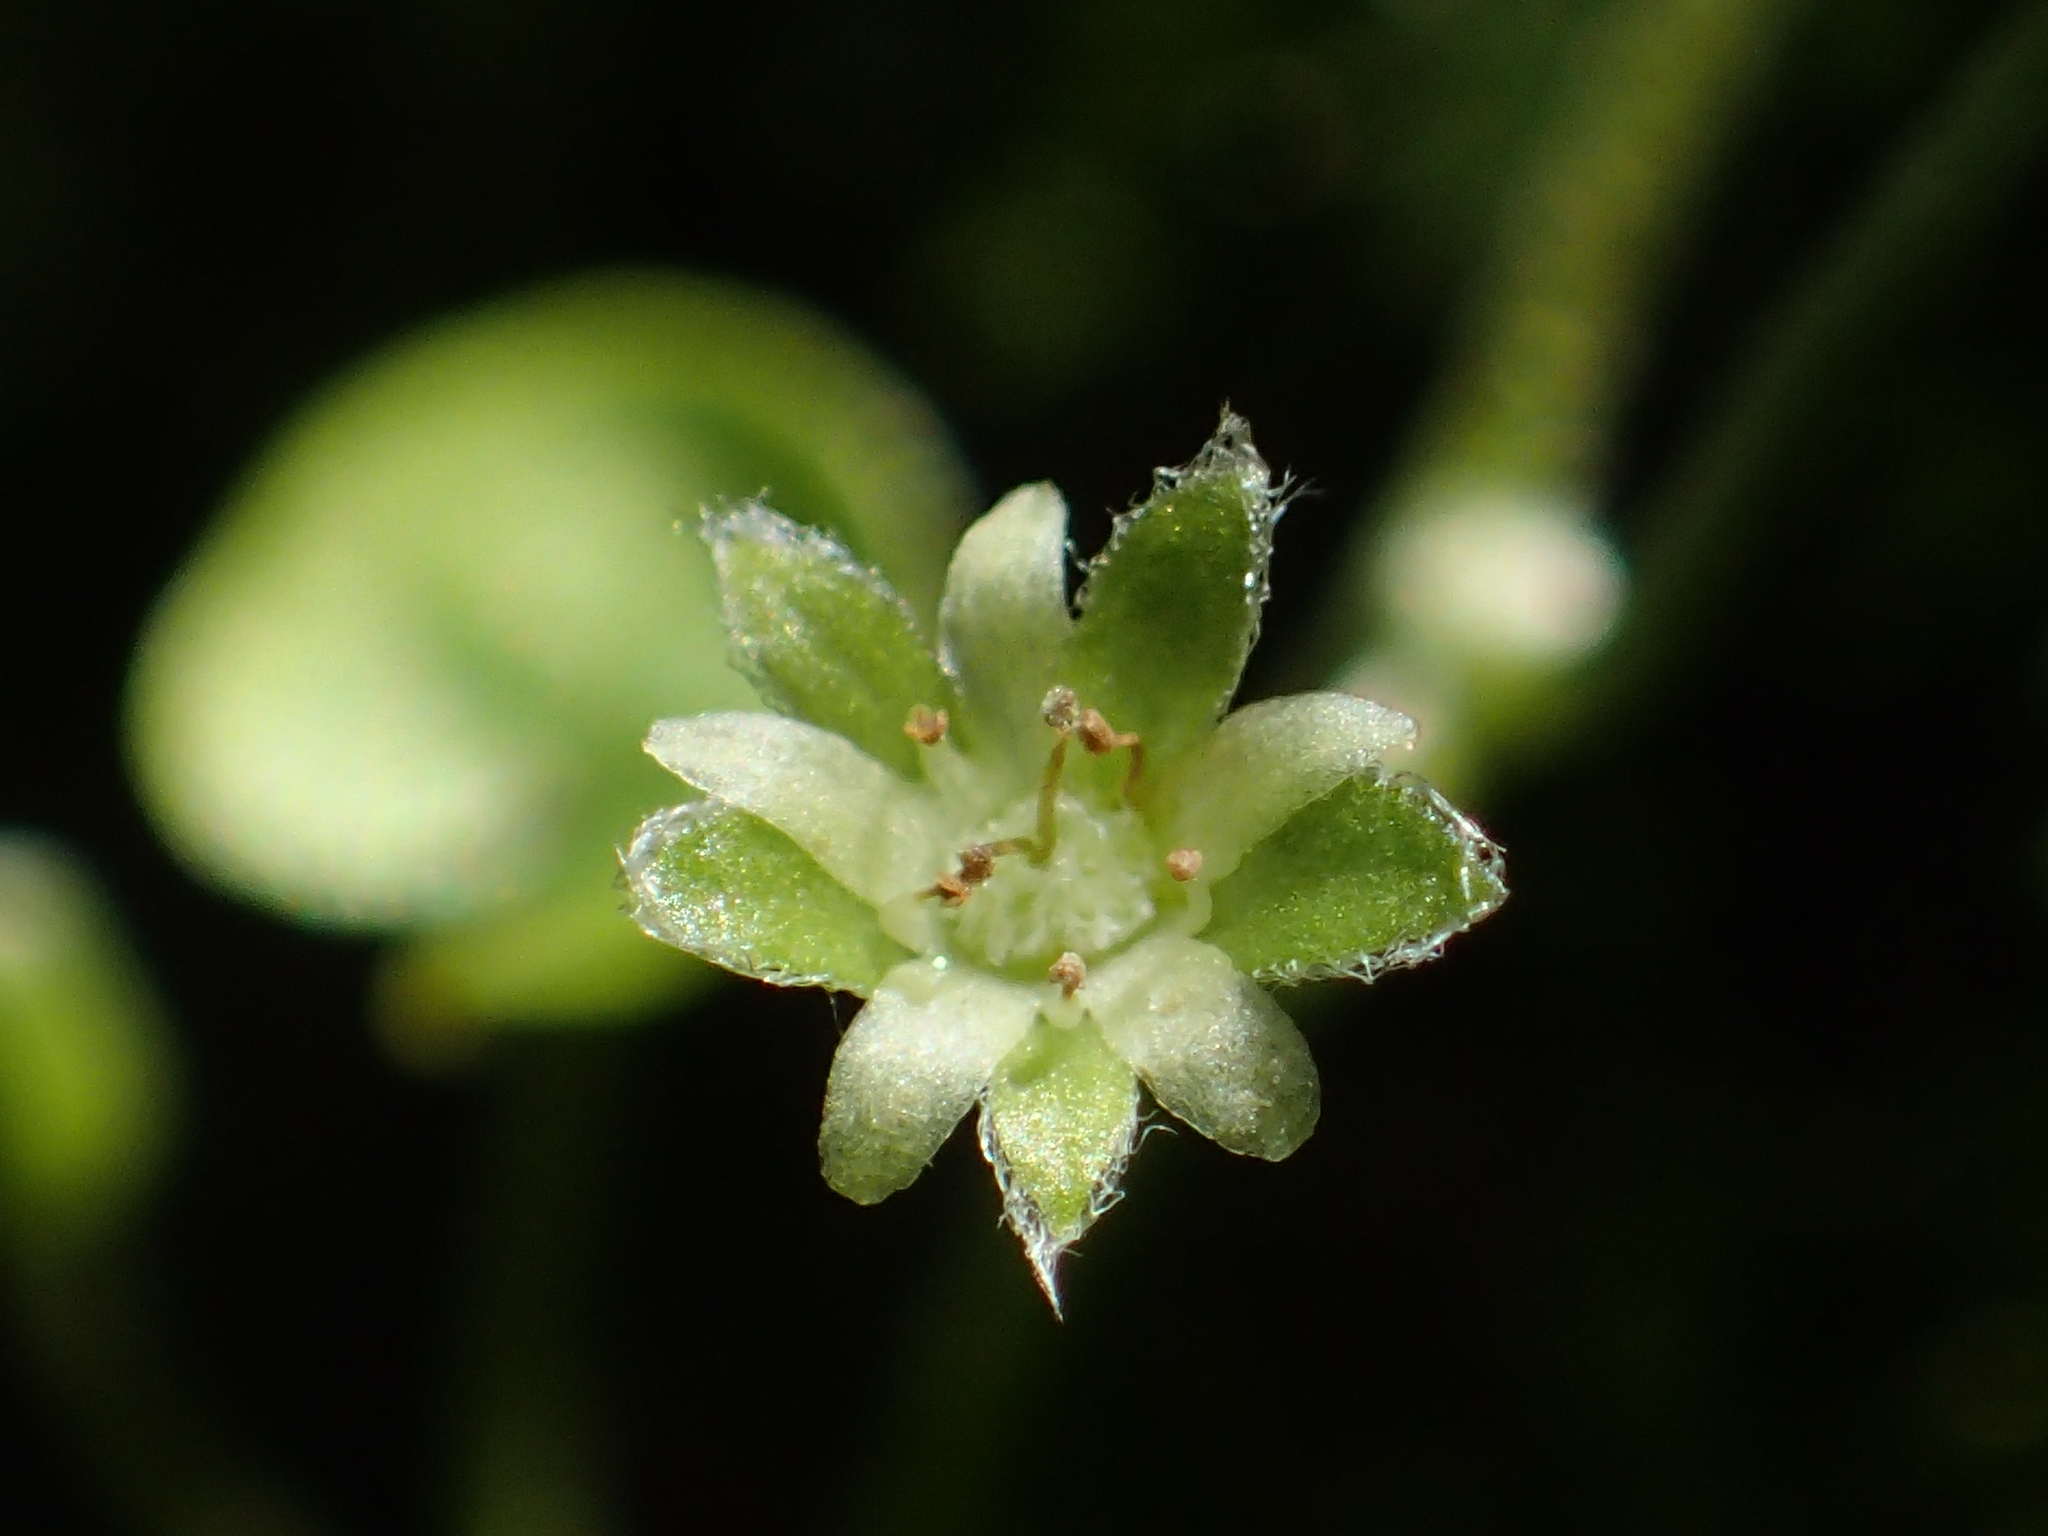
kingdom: Plantae
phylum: Tracheophyta
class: Magnoliopsida
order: Solanales
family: Convolvulaceae
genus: Dichondra
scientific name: Dichondra micrantha
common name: Kidneyweed
